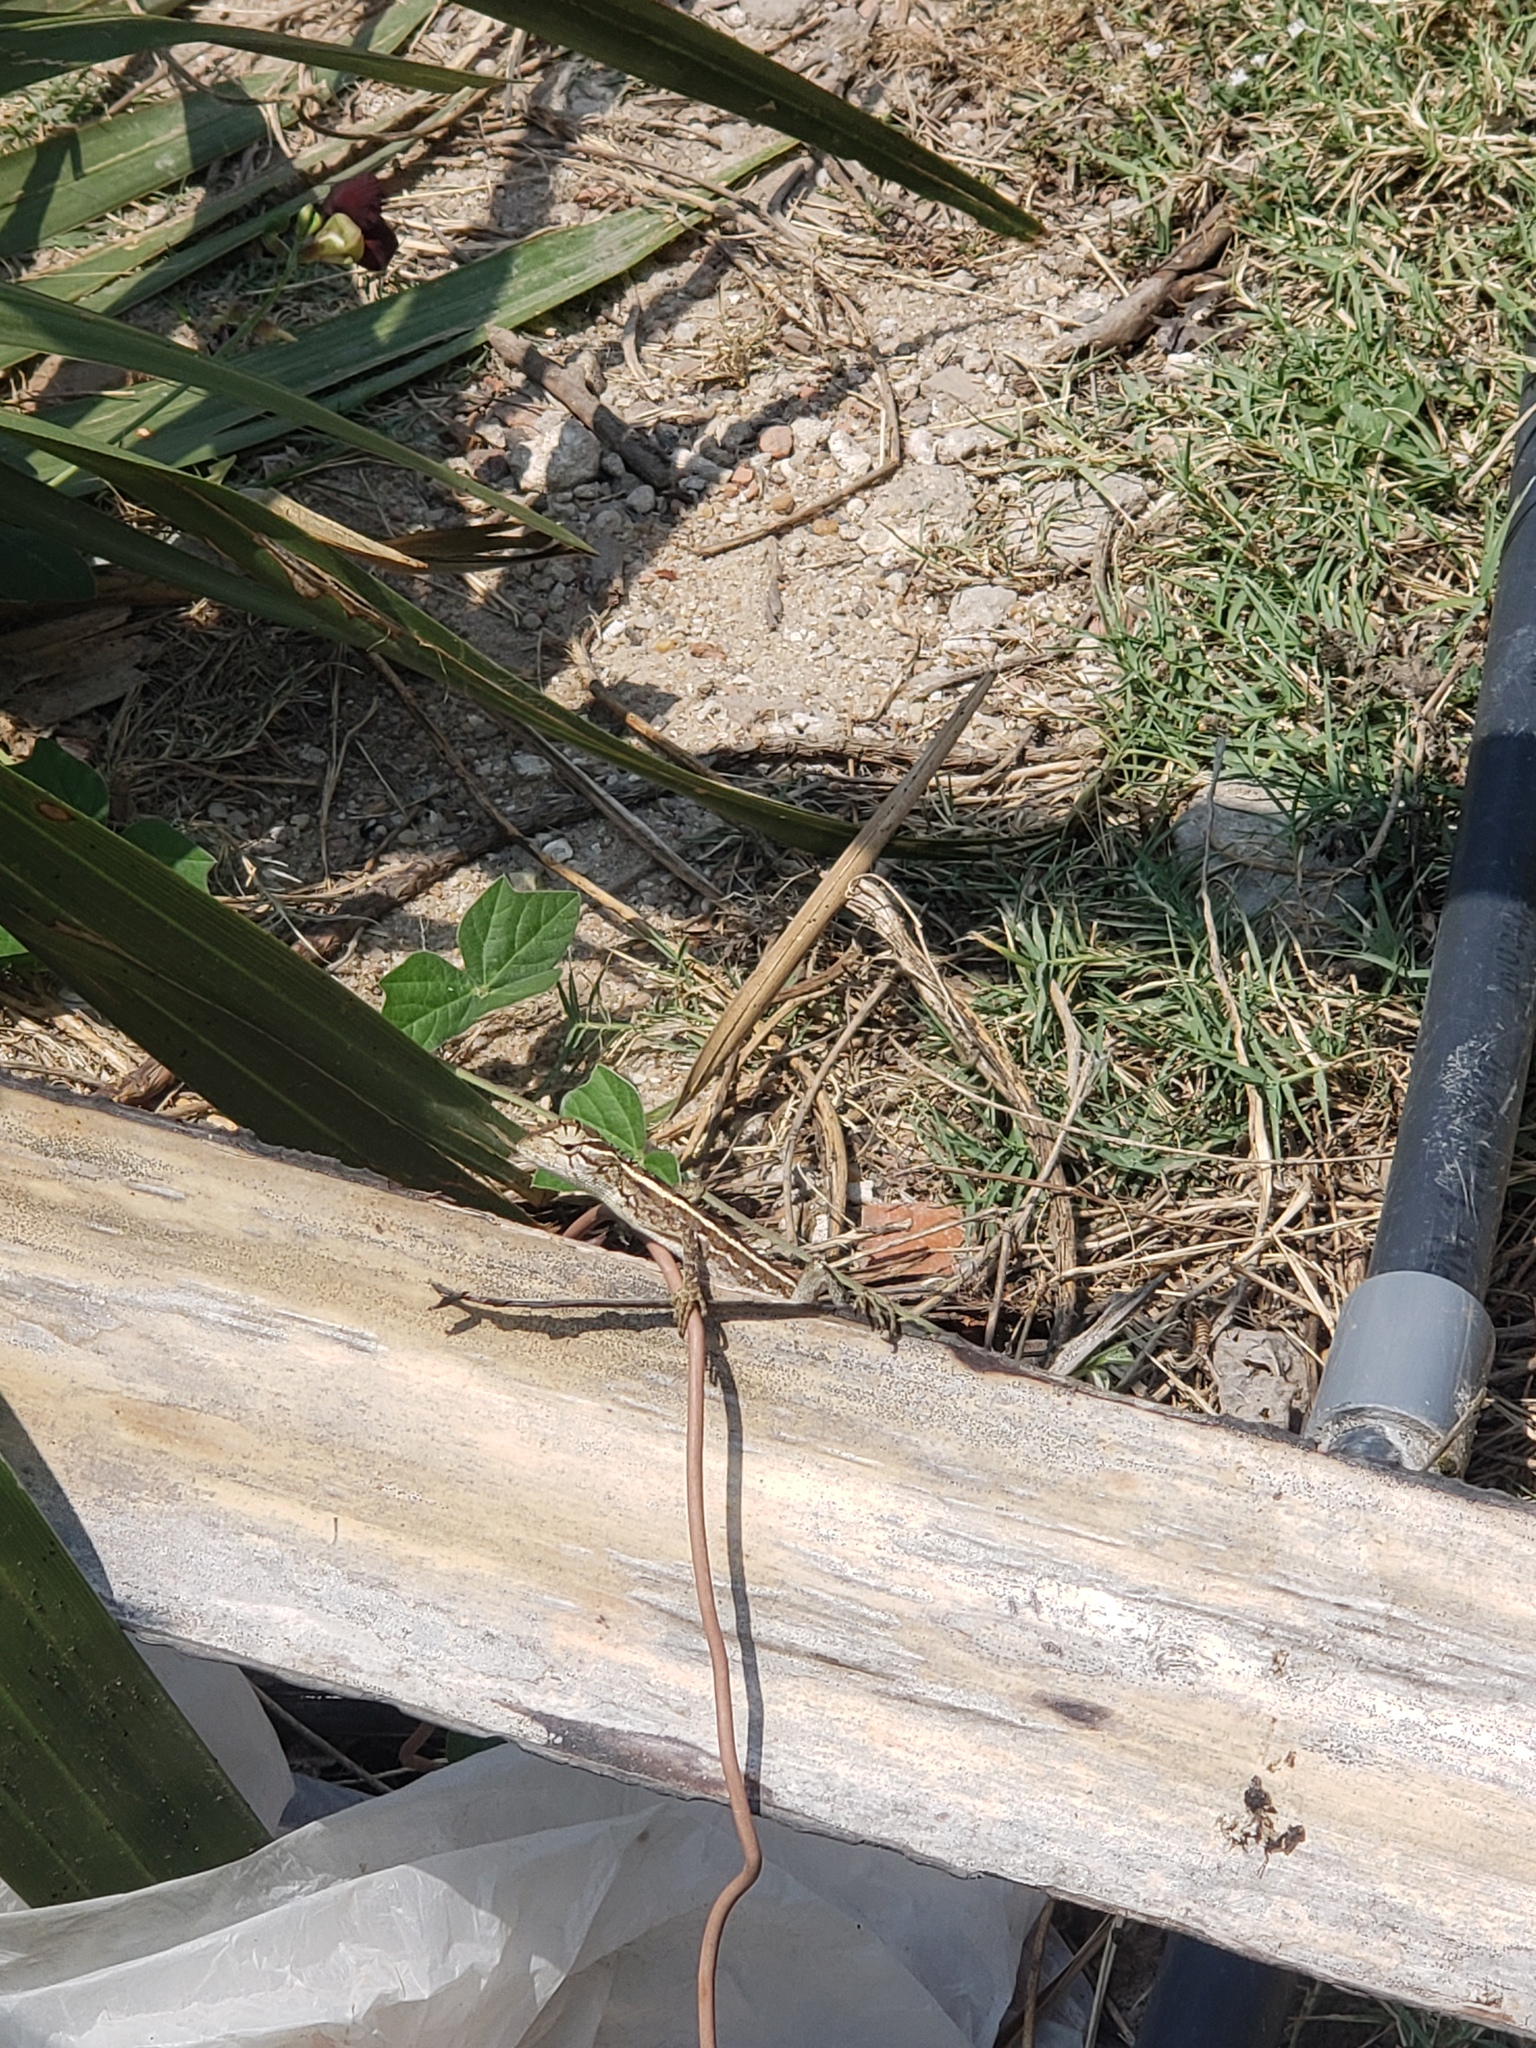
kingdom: Animalia
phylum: Chordata
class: Squamata
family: Agamidae
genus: Calotes
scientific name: Calotes versicolor
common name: Oriental garden lizard
